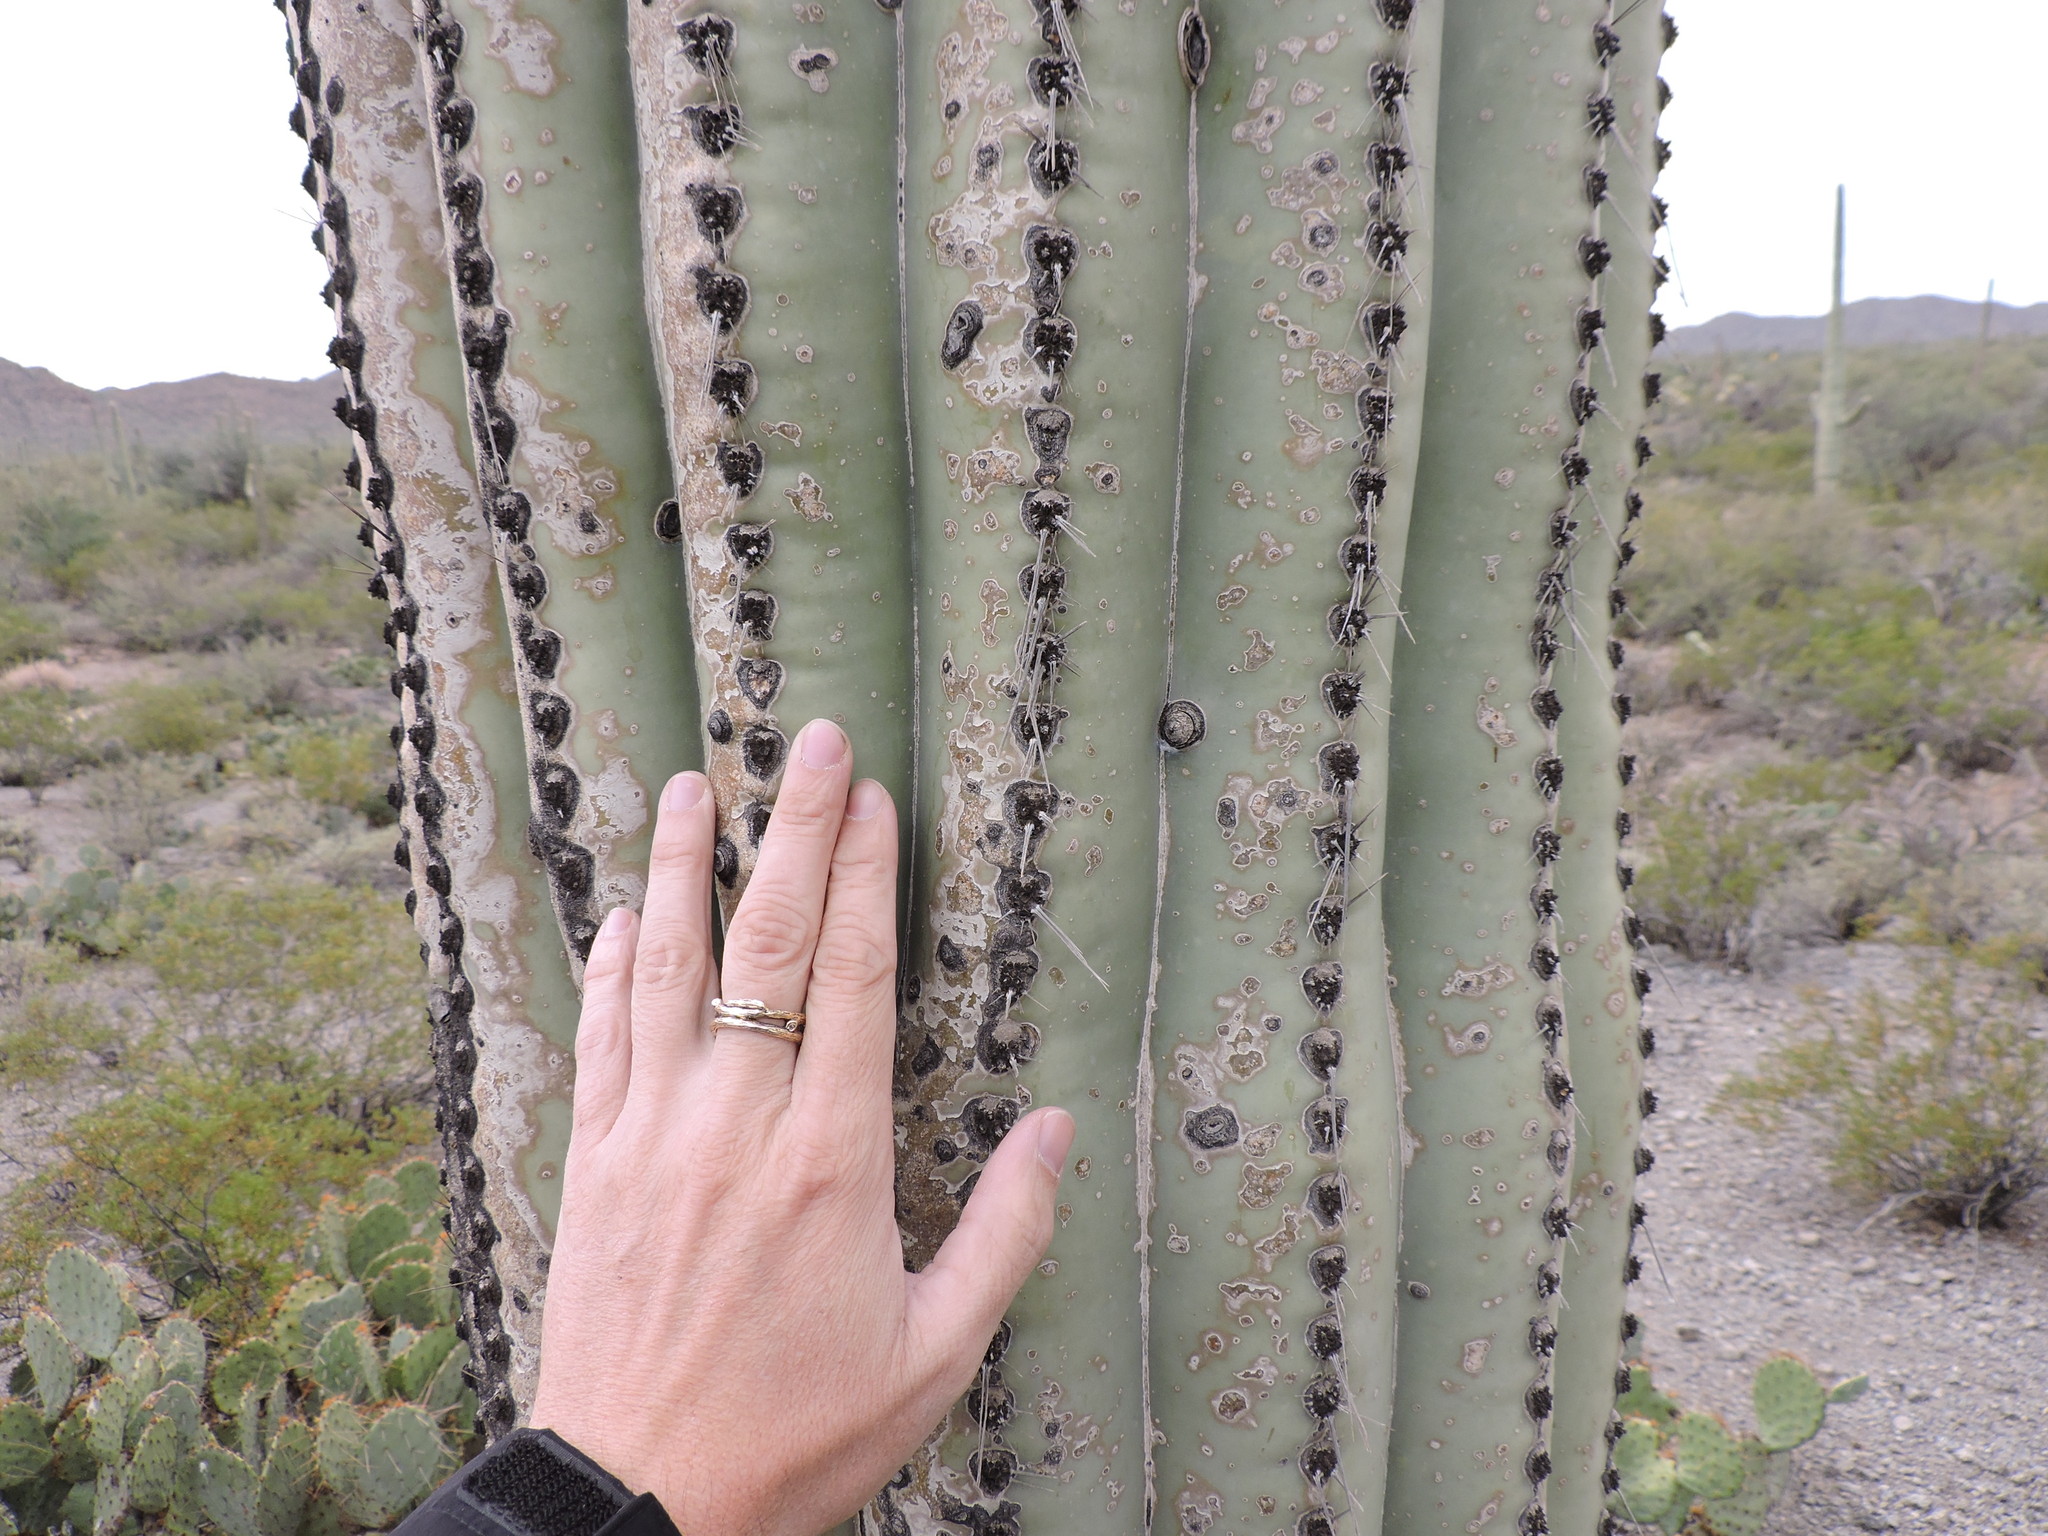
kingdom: Plantae
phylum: Tracheophyta
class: Magnoliopsida
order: Caryophyllales
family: Cactaceae
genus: Carnegiea
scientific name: Carnegiea gigantea
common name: Saguaro
